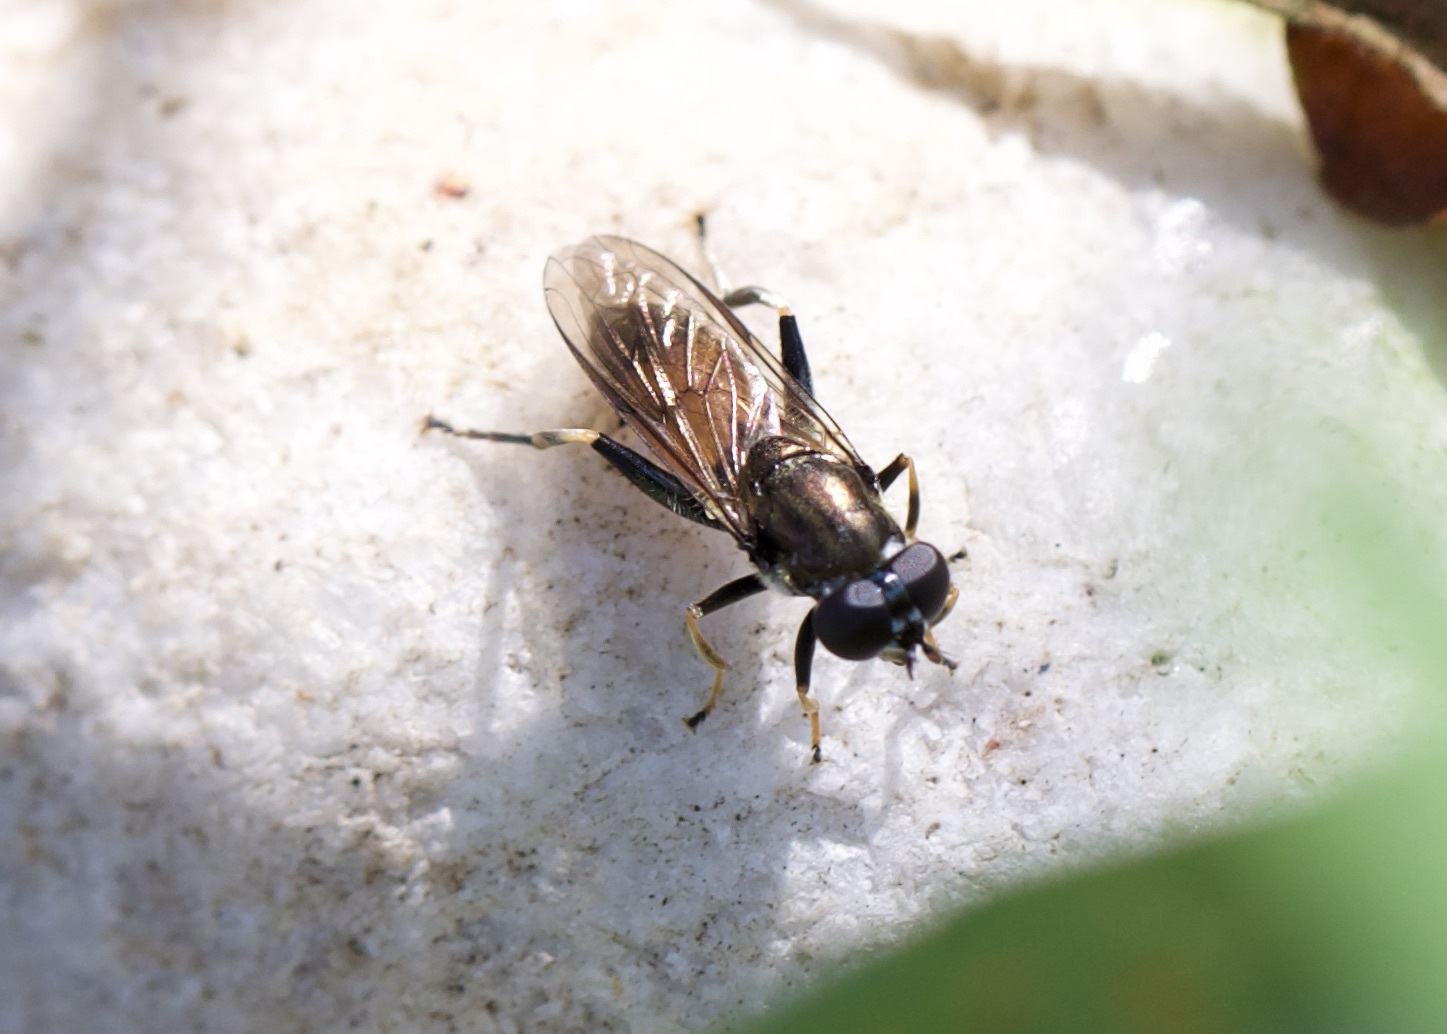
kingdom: Animalia
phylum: Arthropoda
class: Insecta
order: Diptera
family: Syrphidae
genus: Xylota
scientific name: Xylota segnis
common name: Brown-toed forest fly
